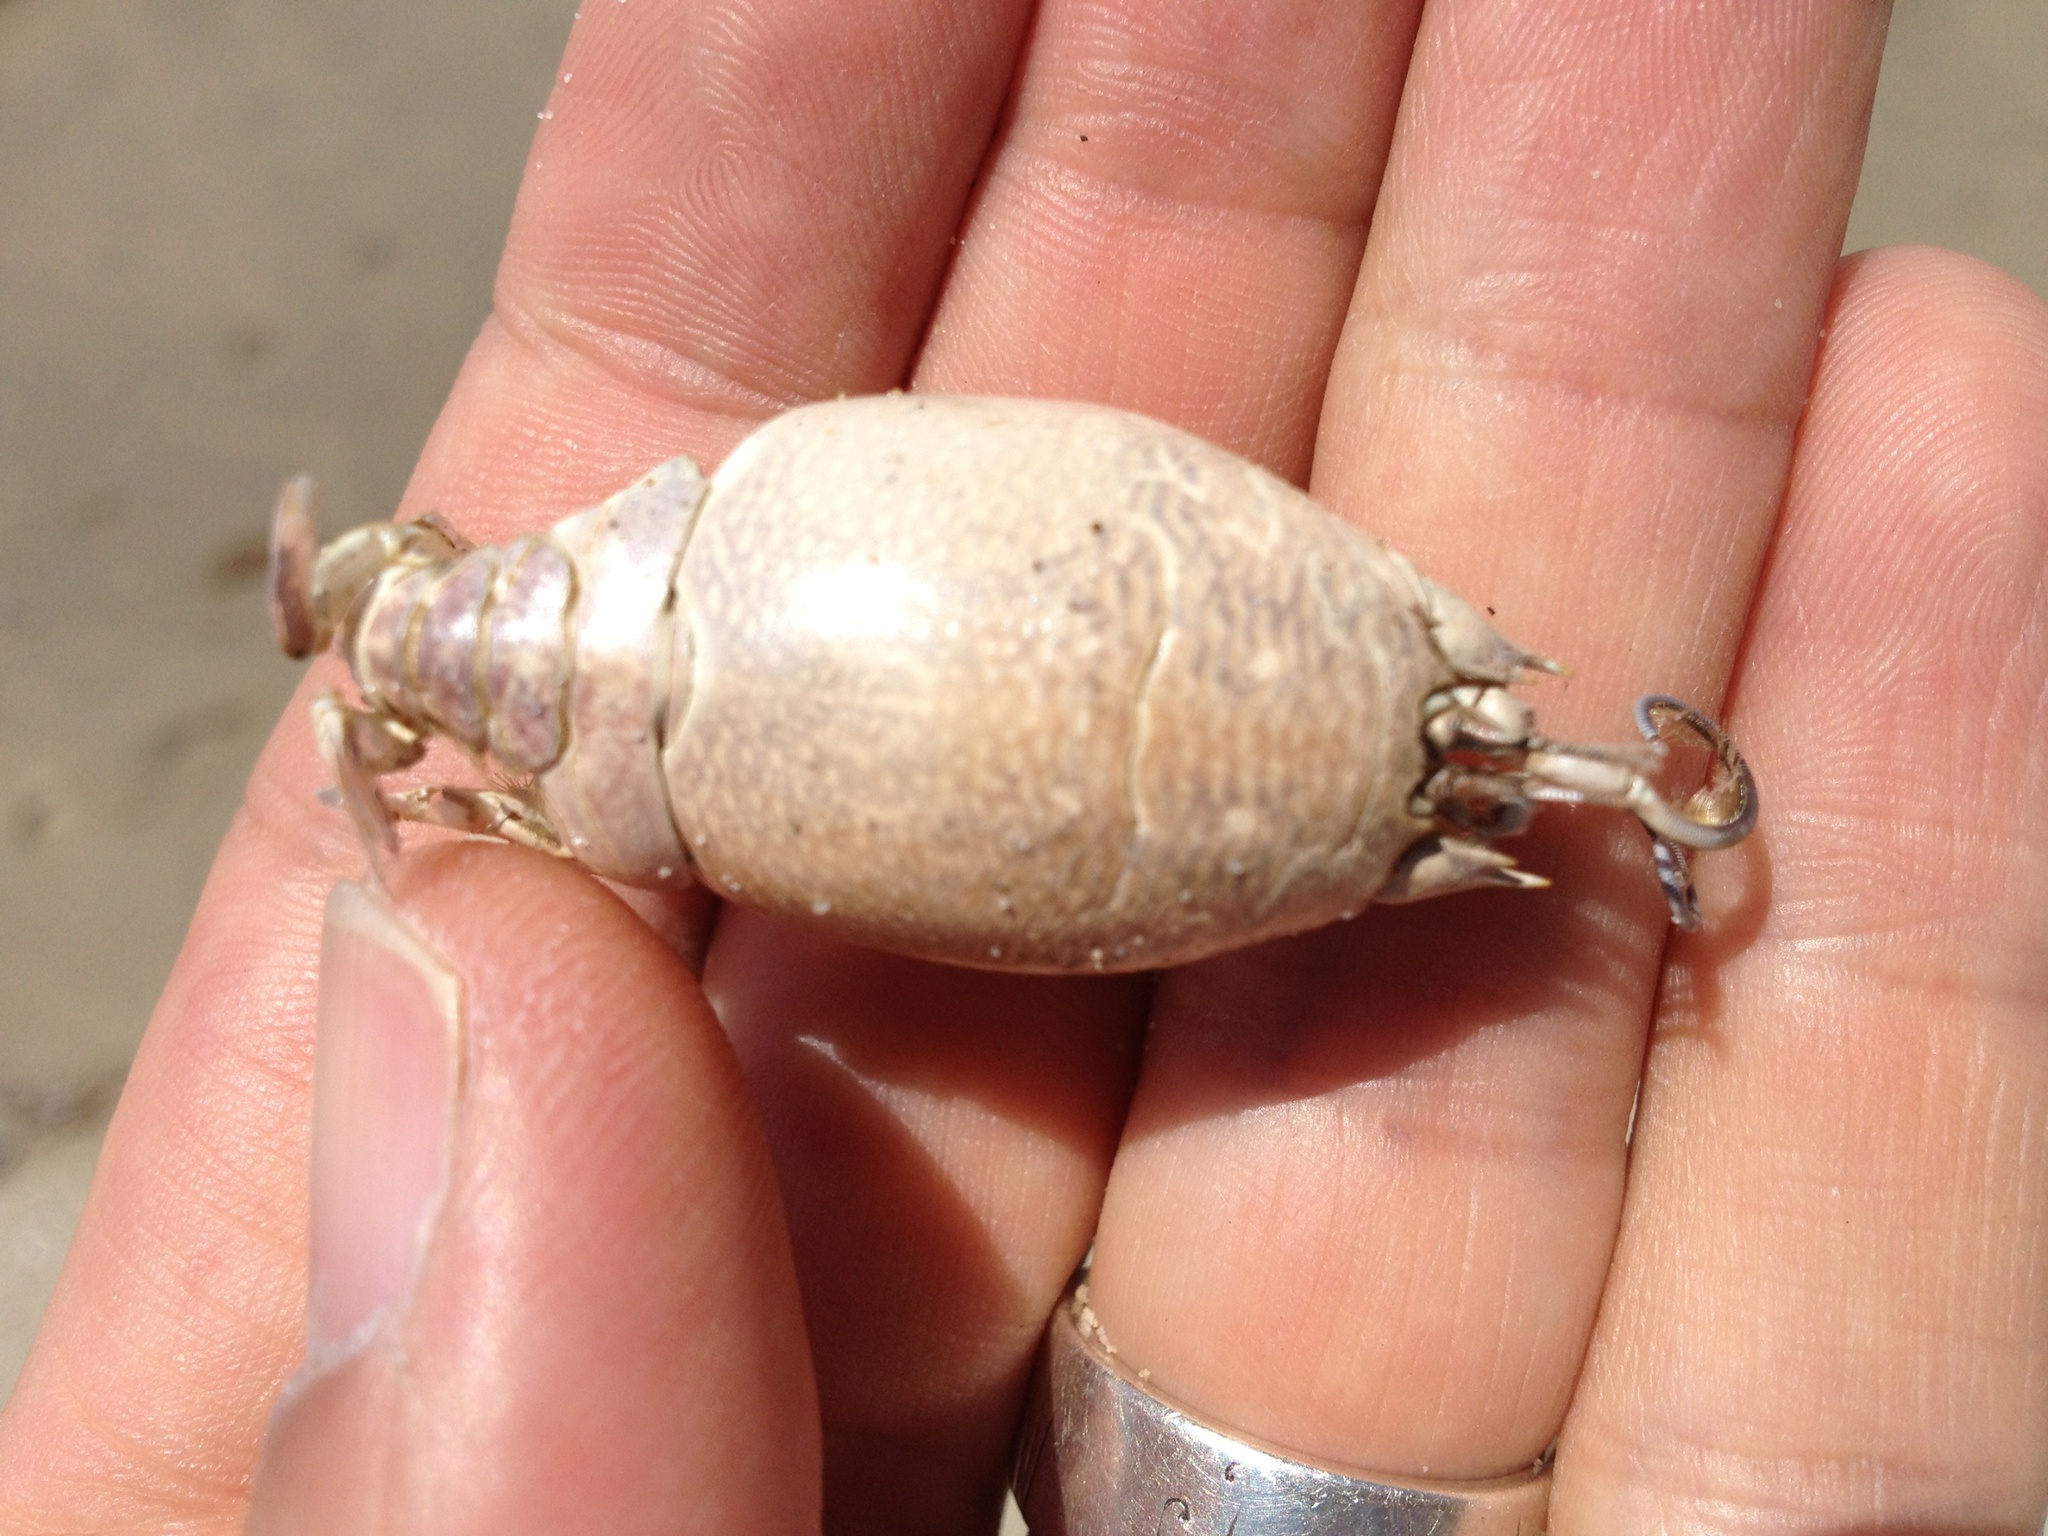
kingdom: Animalia
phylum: Arthropoda
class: Malacostraca
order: Decapoda
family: Hippidae
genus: Emerita
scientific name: Emerita analoga
